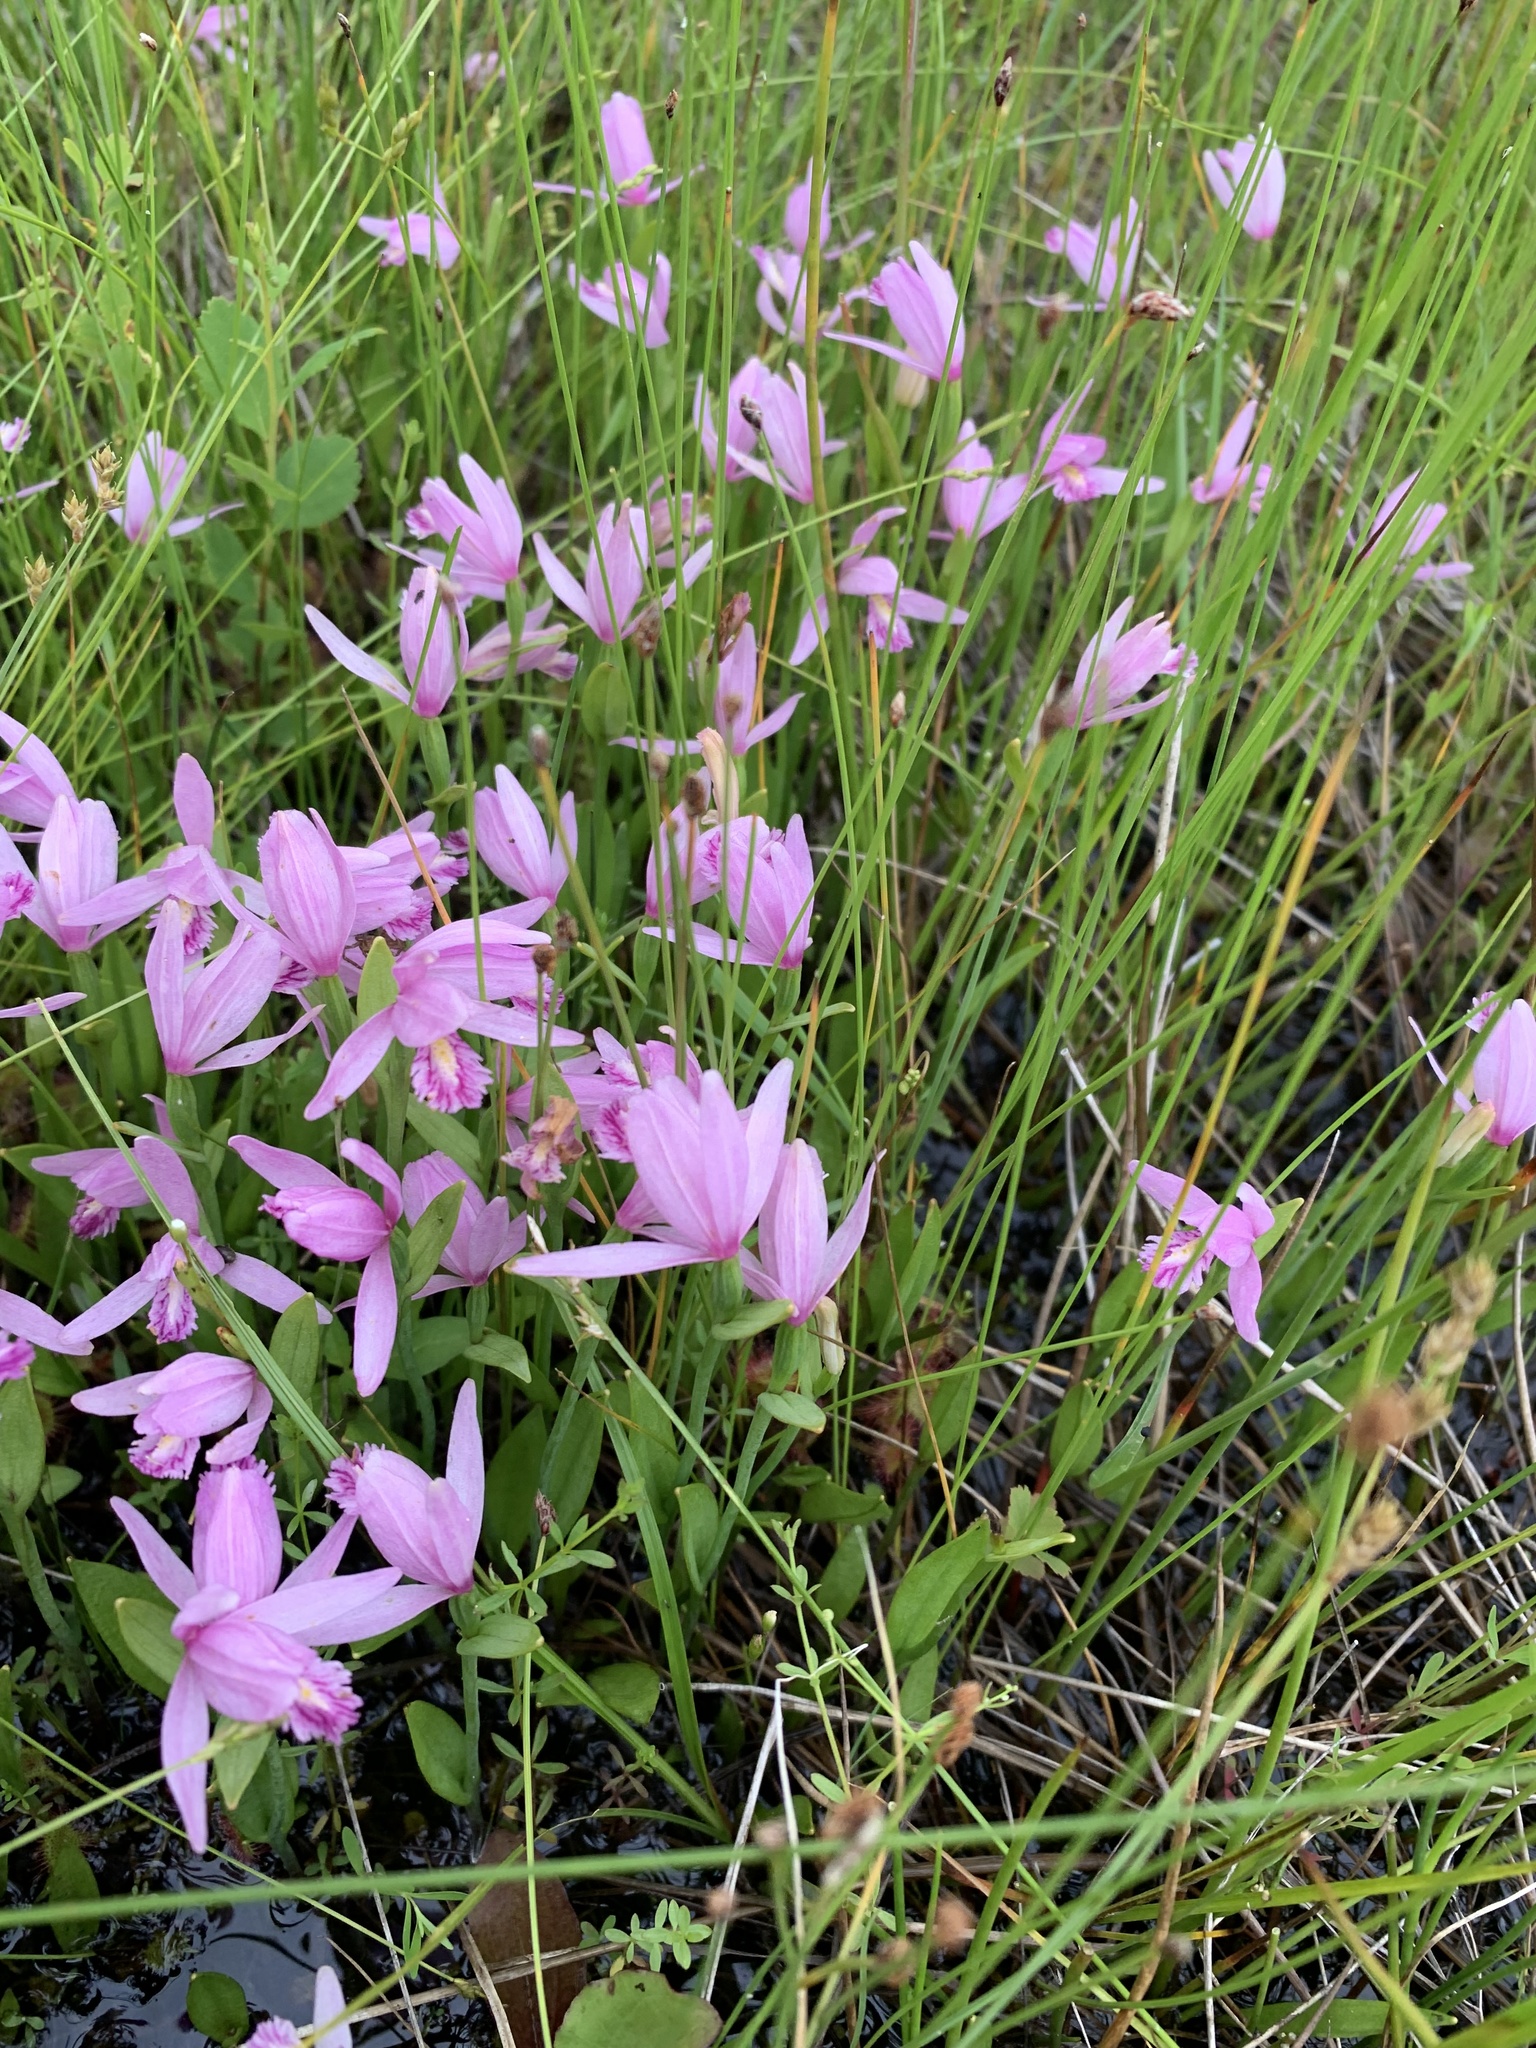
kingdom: Plantae
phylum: Tracheophyta
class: Liliopsida
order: Asparagales
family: Orchidaceae
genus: Pogonia
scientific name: Pogonia ophioglossoides
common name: Rose pogonia
